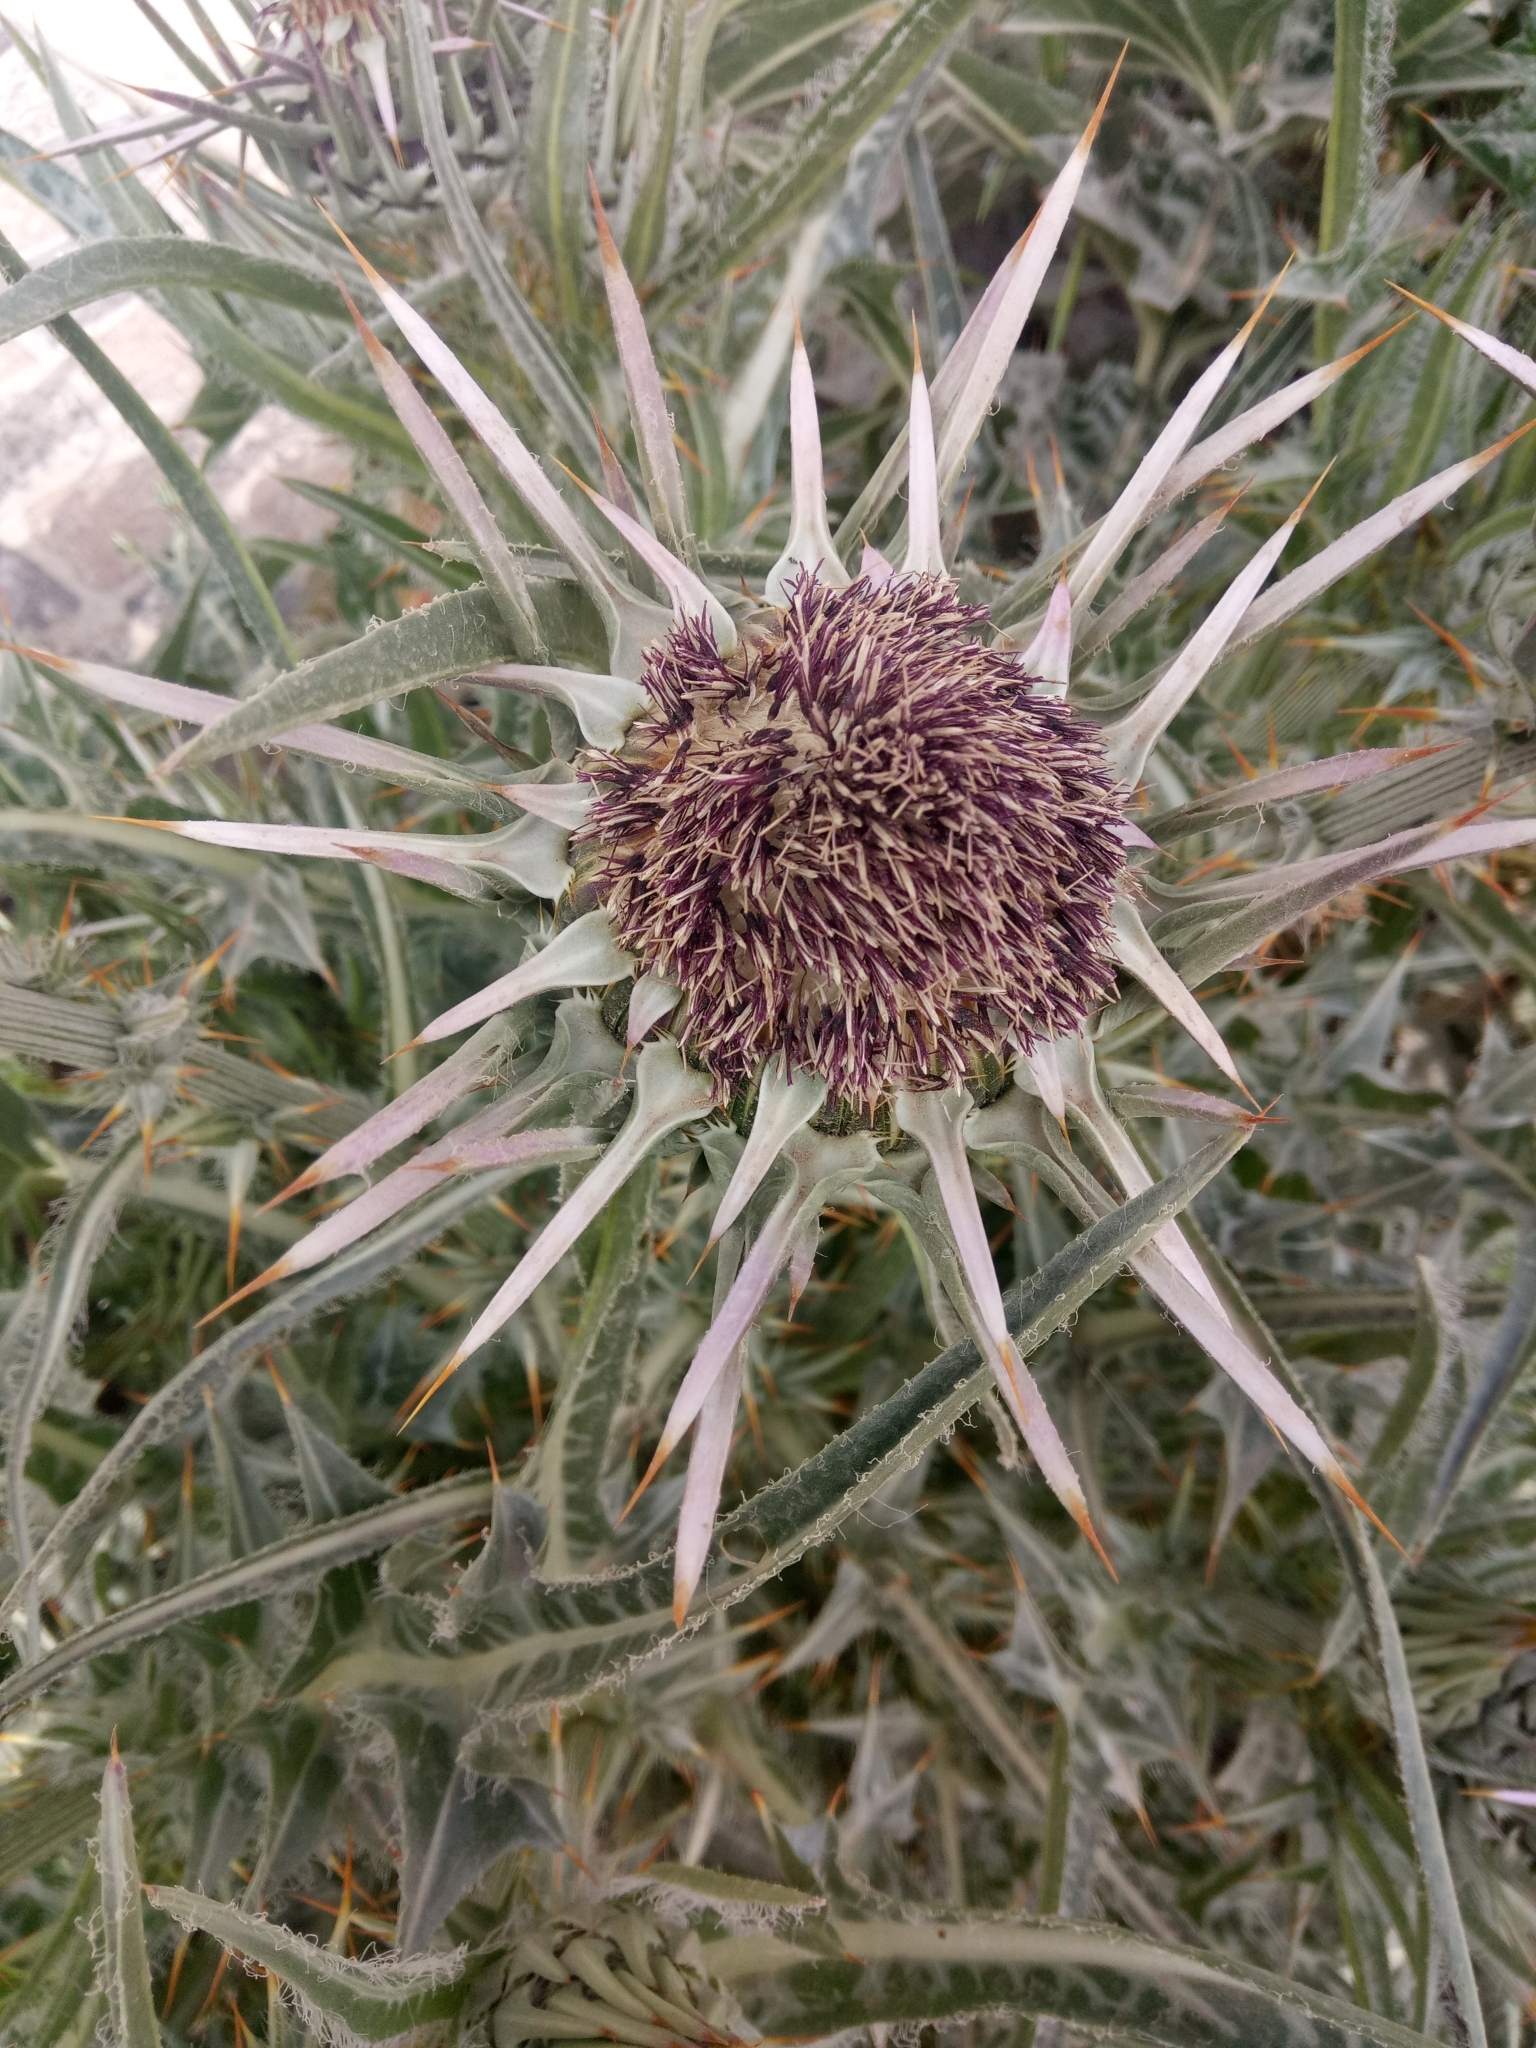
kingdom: Plantae
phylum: Tracheophyta
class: Magnoliopsida
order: Asterales
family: Asteraceae
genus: Silybum
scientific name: Silybum eburneum
